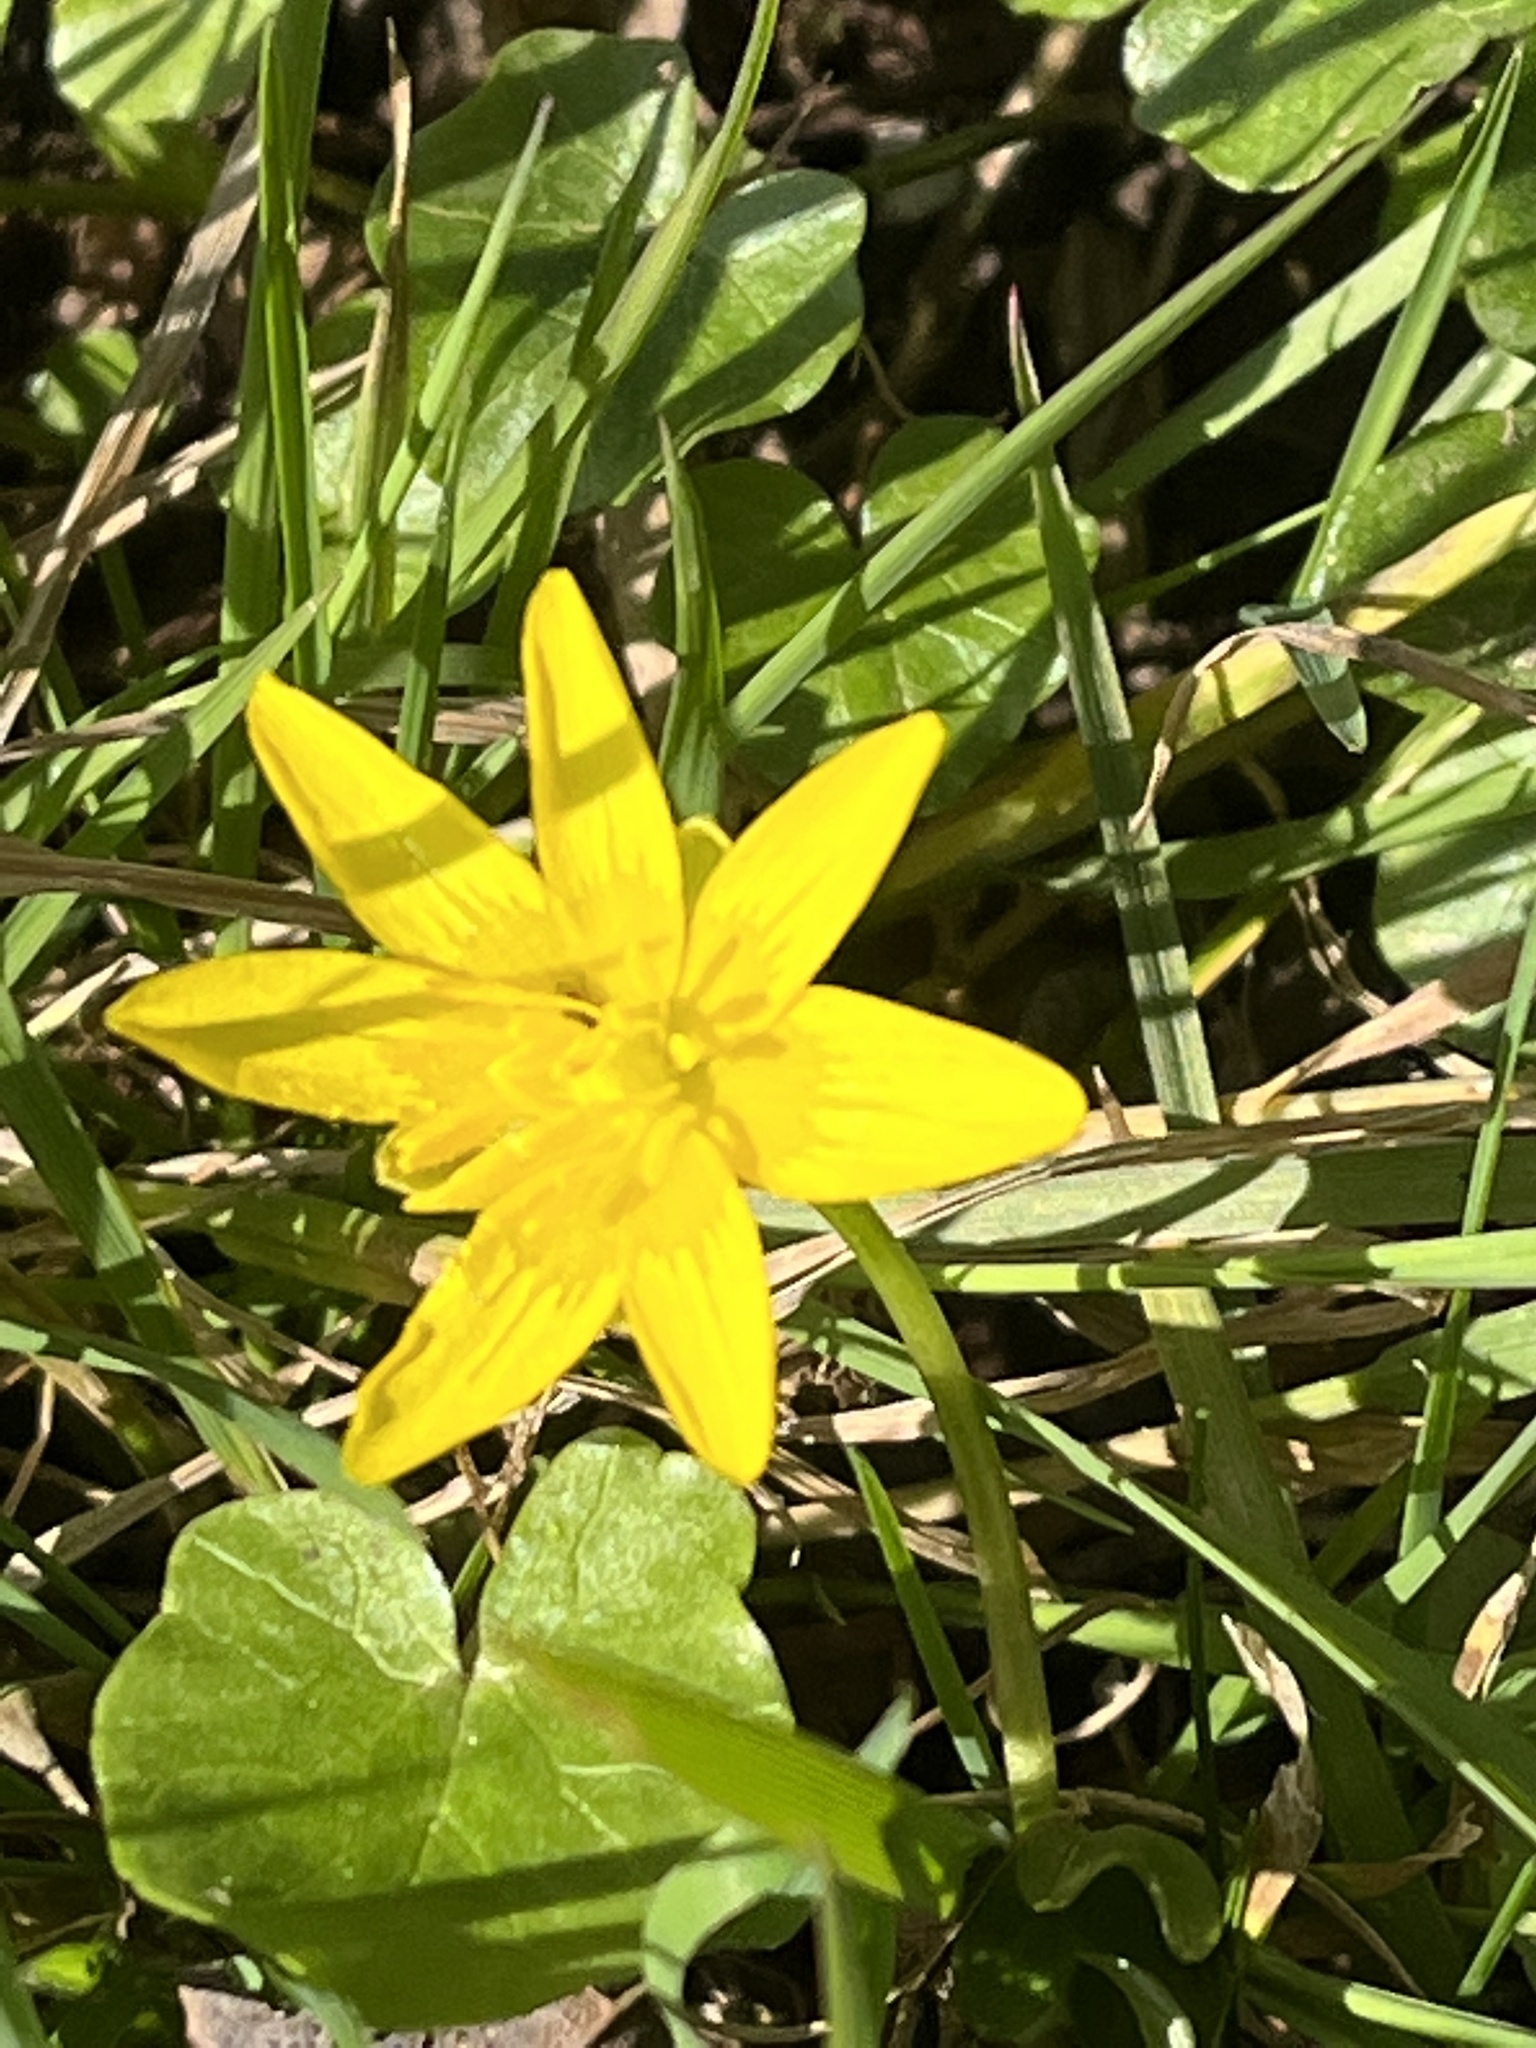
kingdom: Plantae
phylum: Tracheophyta
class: Magnoliopsida
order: Ranunculales
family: Ranunculaceae
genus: Ficaria
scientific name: Ficaria verna
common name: Lesser celandine
